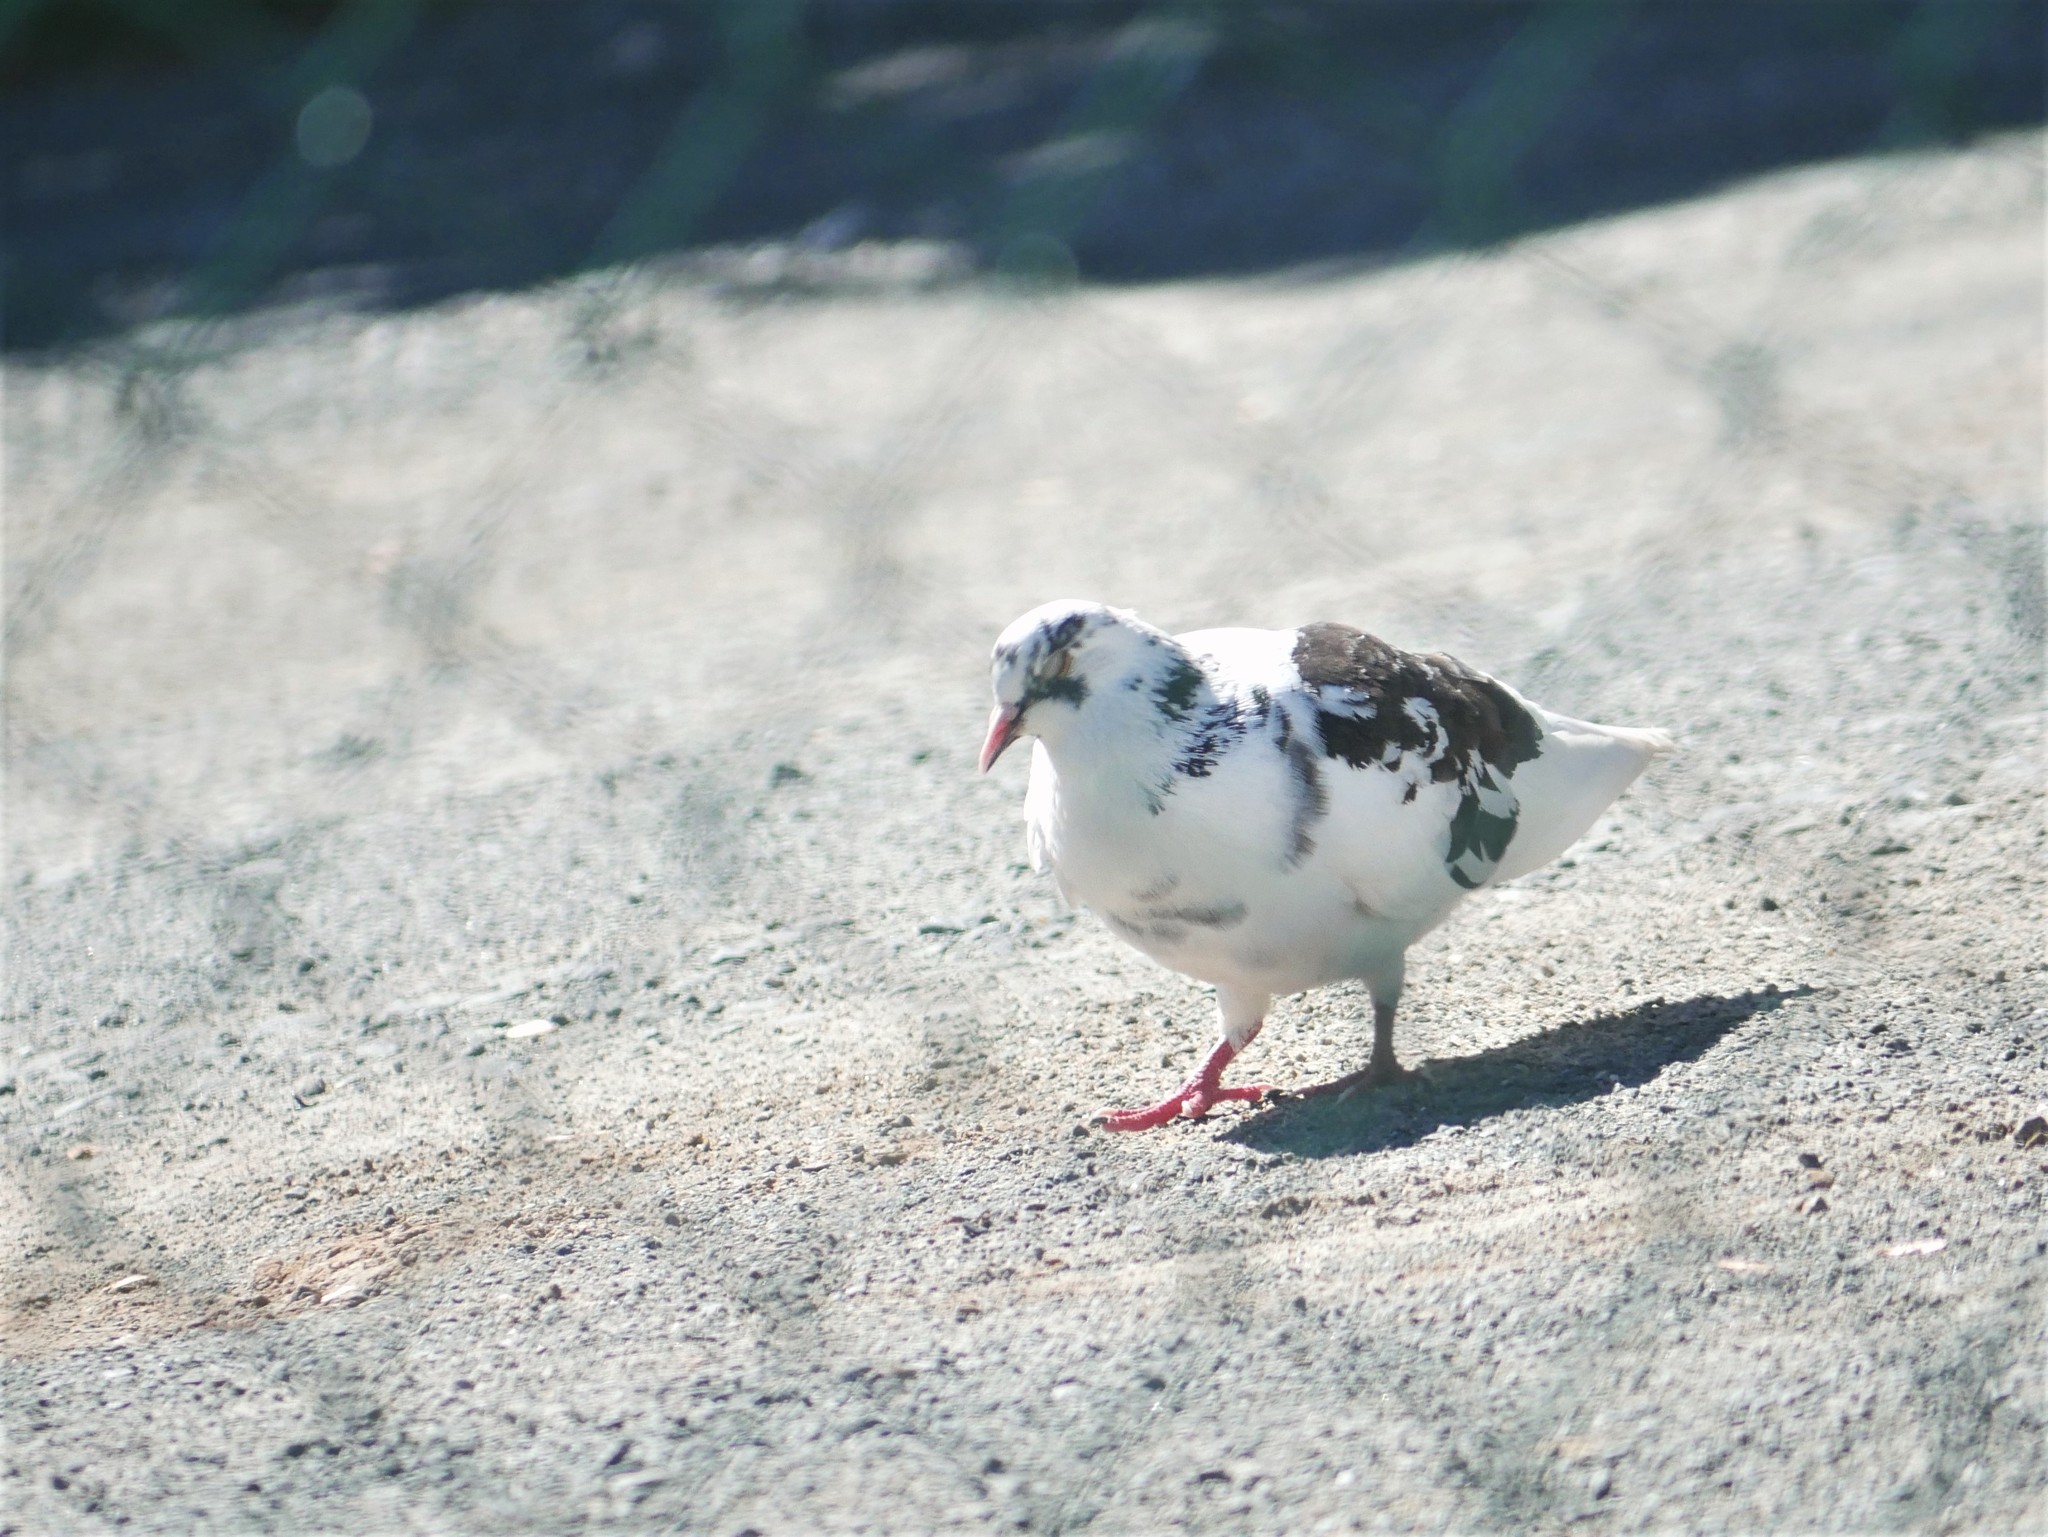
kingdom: Animalia
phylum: Chordata
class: Aves
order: Columbiformes
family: Columbidae
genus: Columba
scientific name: Columba livia
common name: Rock pigeon
